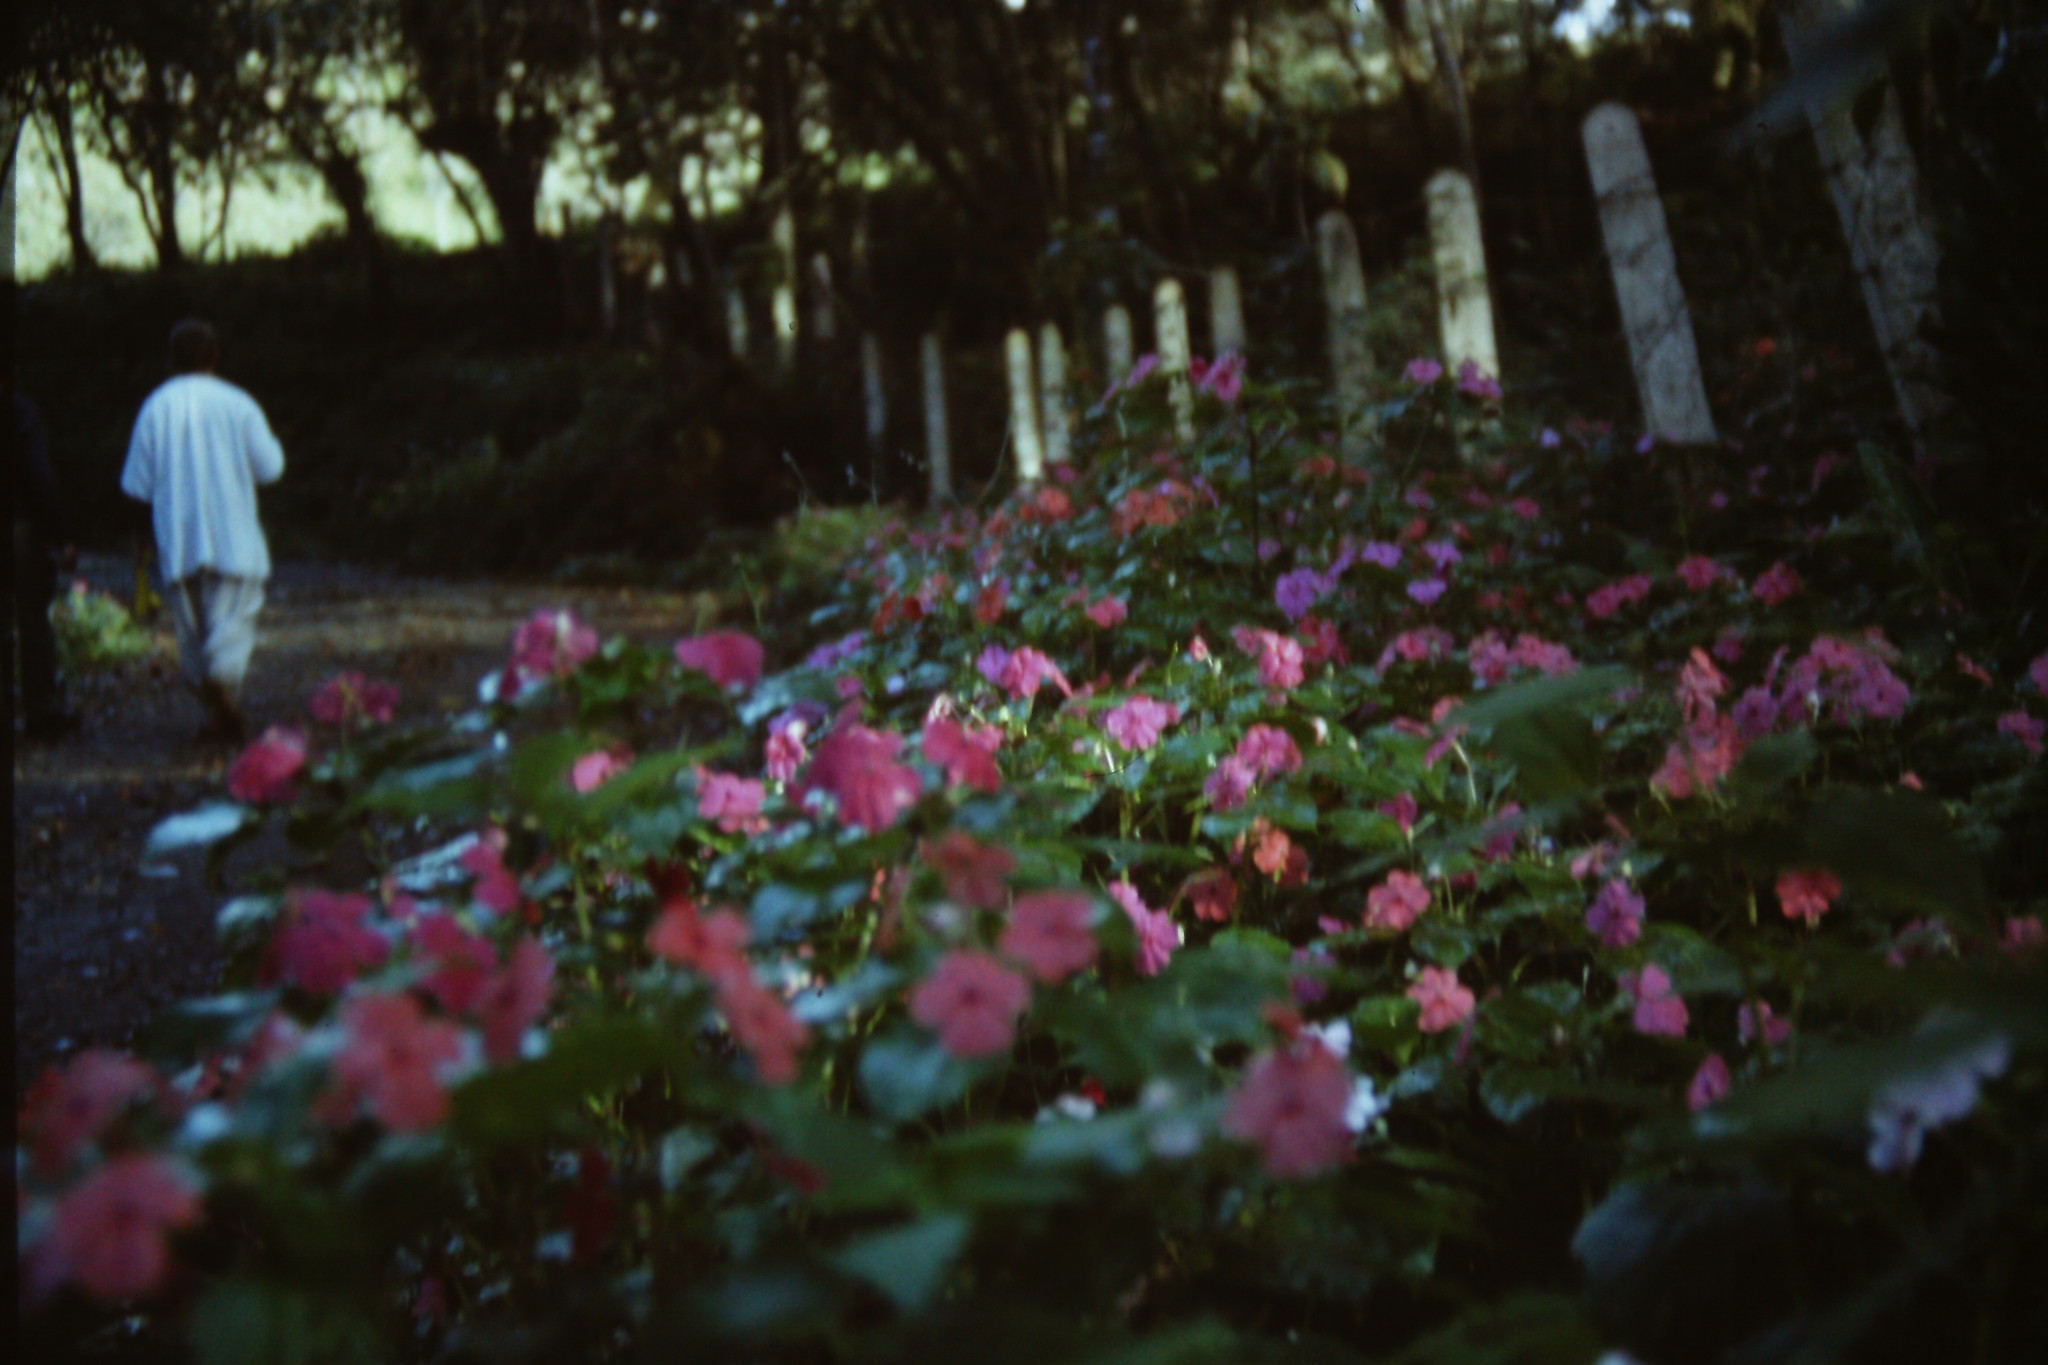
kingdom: Plantae
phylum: Tracheophyta
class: Magnoliopsida
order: Ericales
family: Balsaminaceae
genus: Impatiens
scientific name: Impatiens walleriana
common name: Buzzy lizzy
